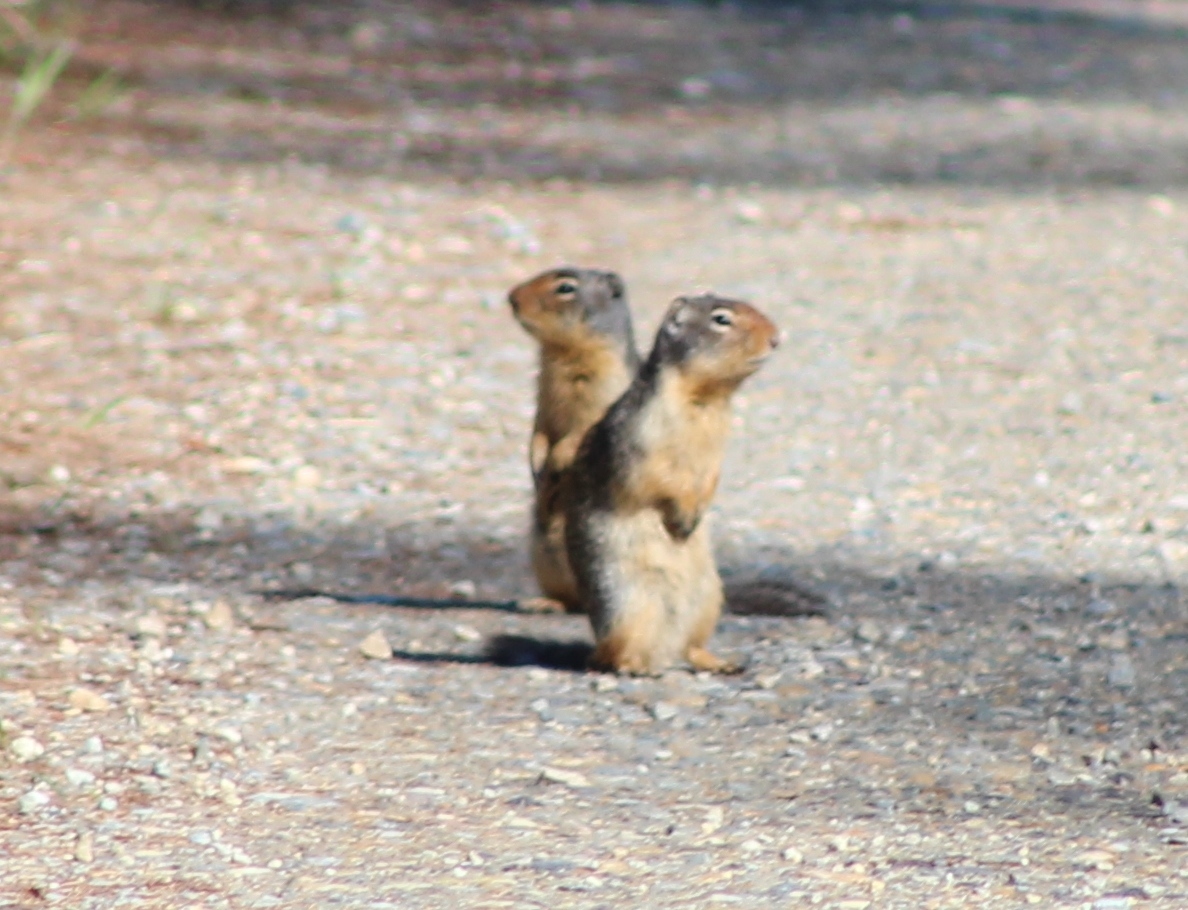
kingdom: Animalia
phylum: Chordata
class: Mammalia
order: Rodentia
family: Sciuridae
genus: Urocitellus
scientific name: Urocitellus columbianus
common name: Columbian ground squirrel
